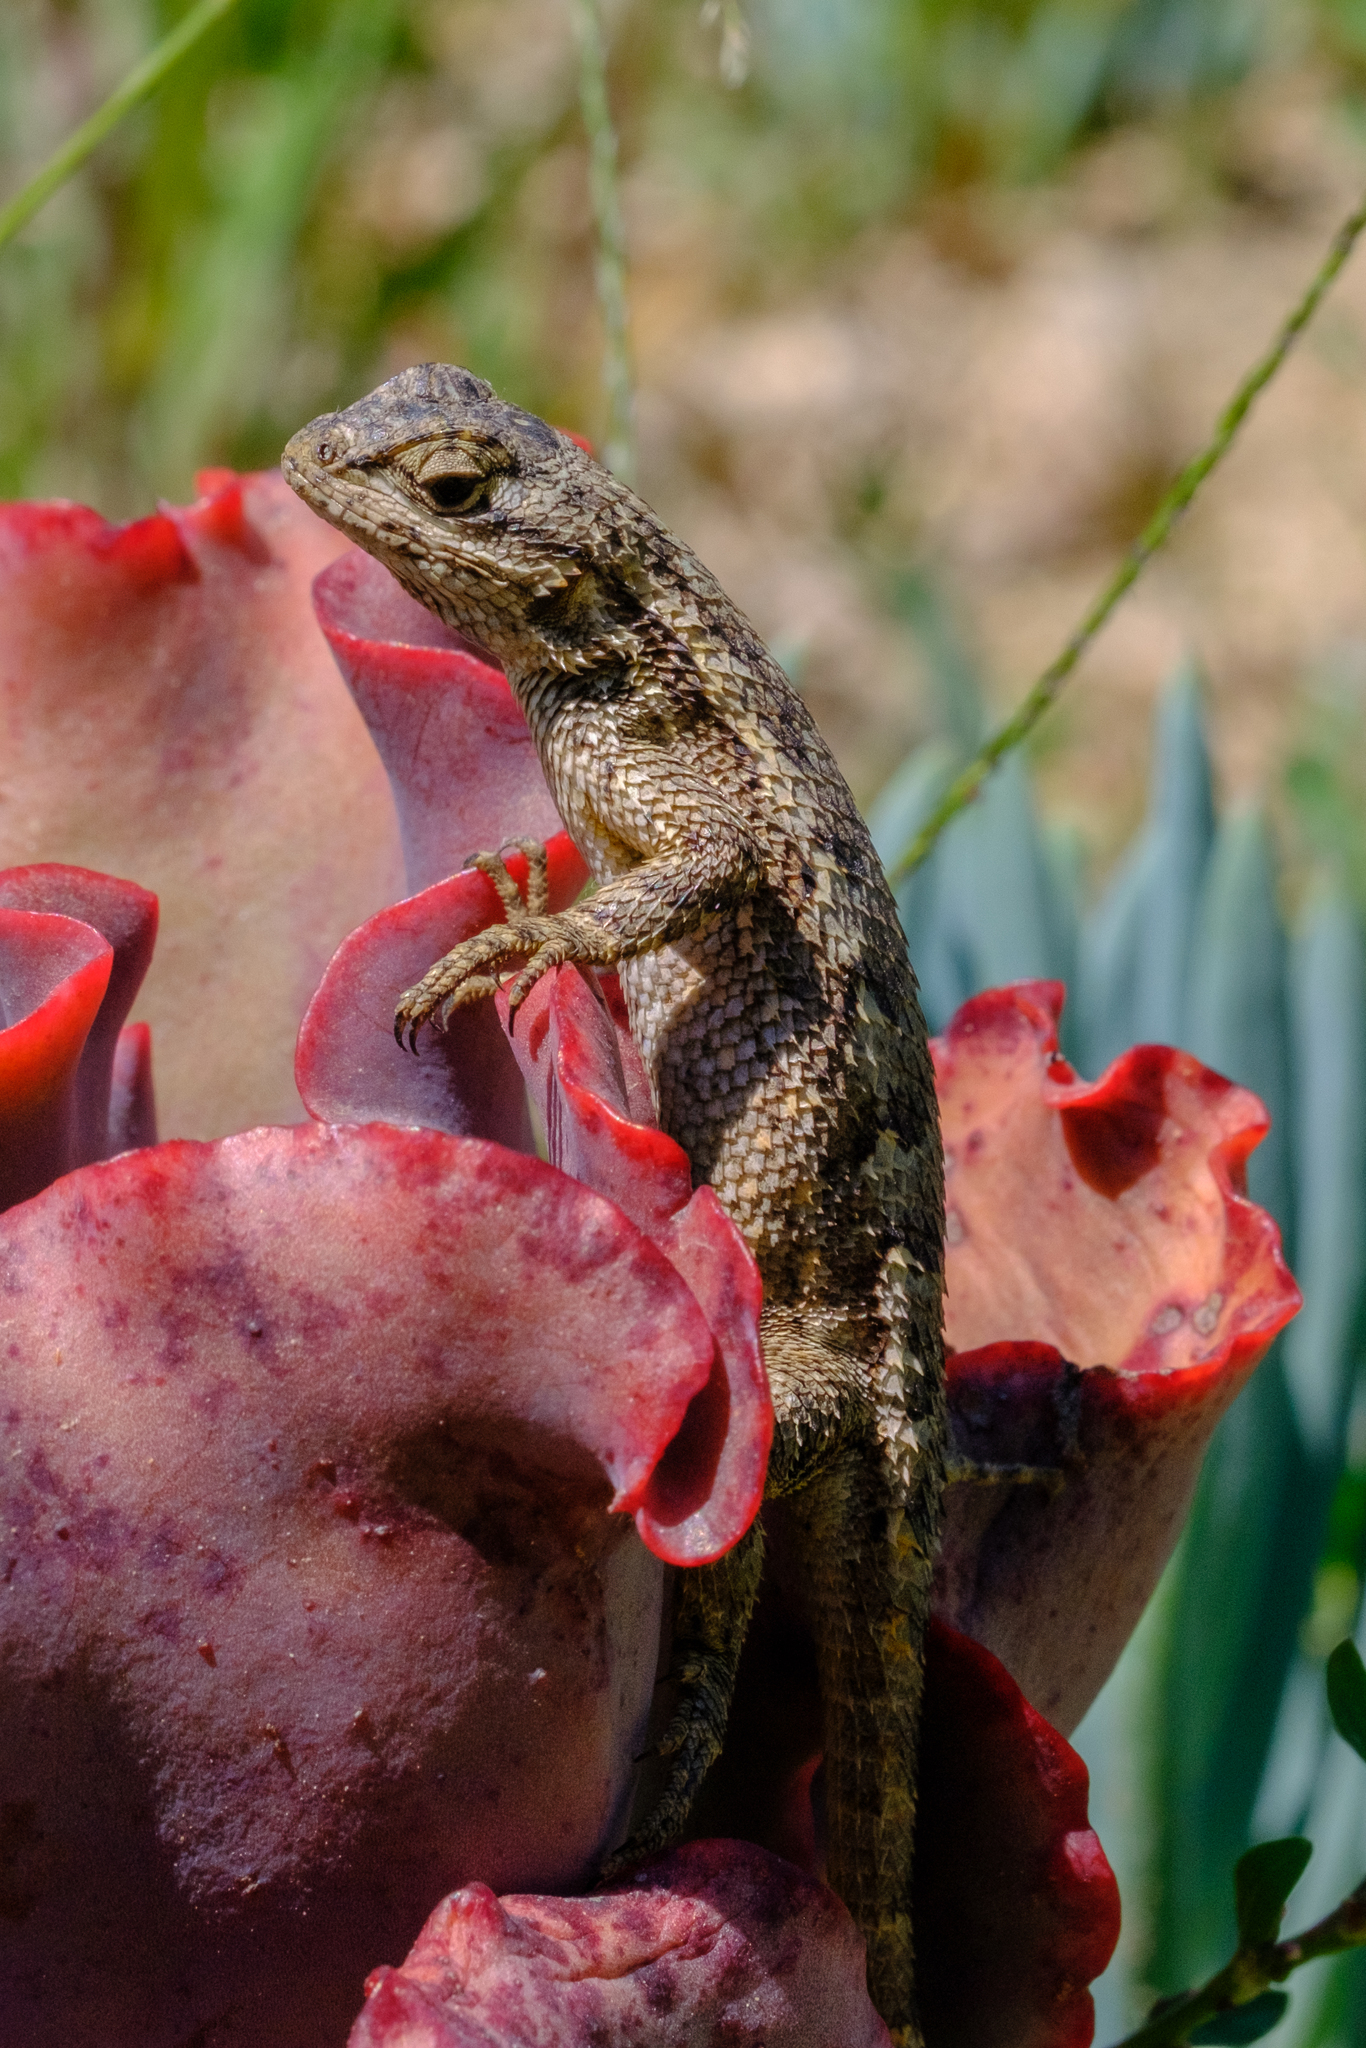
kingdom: Animalia
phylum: Chordata
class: Squamata
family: Phrynosomatidae
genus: Sceloporus
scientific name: Sceloporus occidentalis
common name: Western fence lizard
